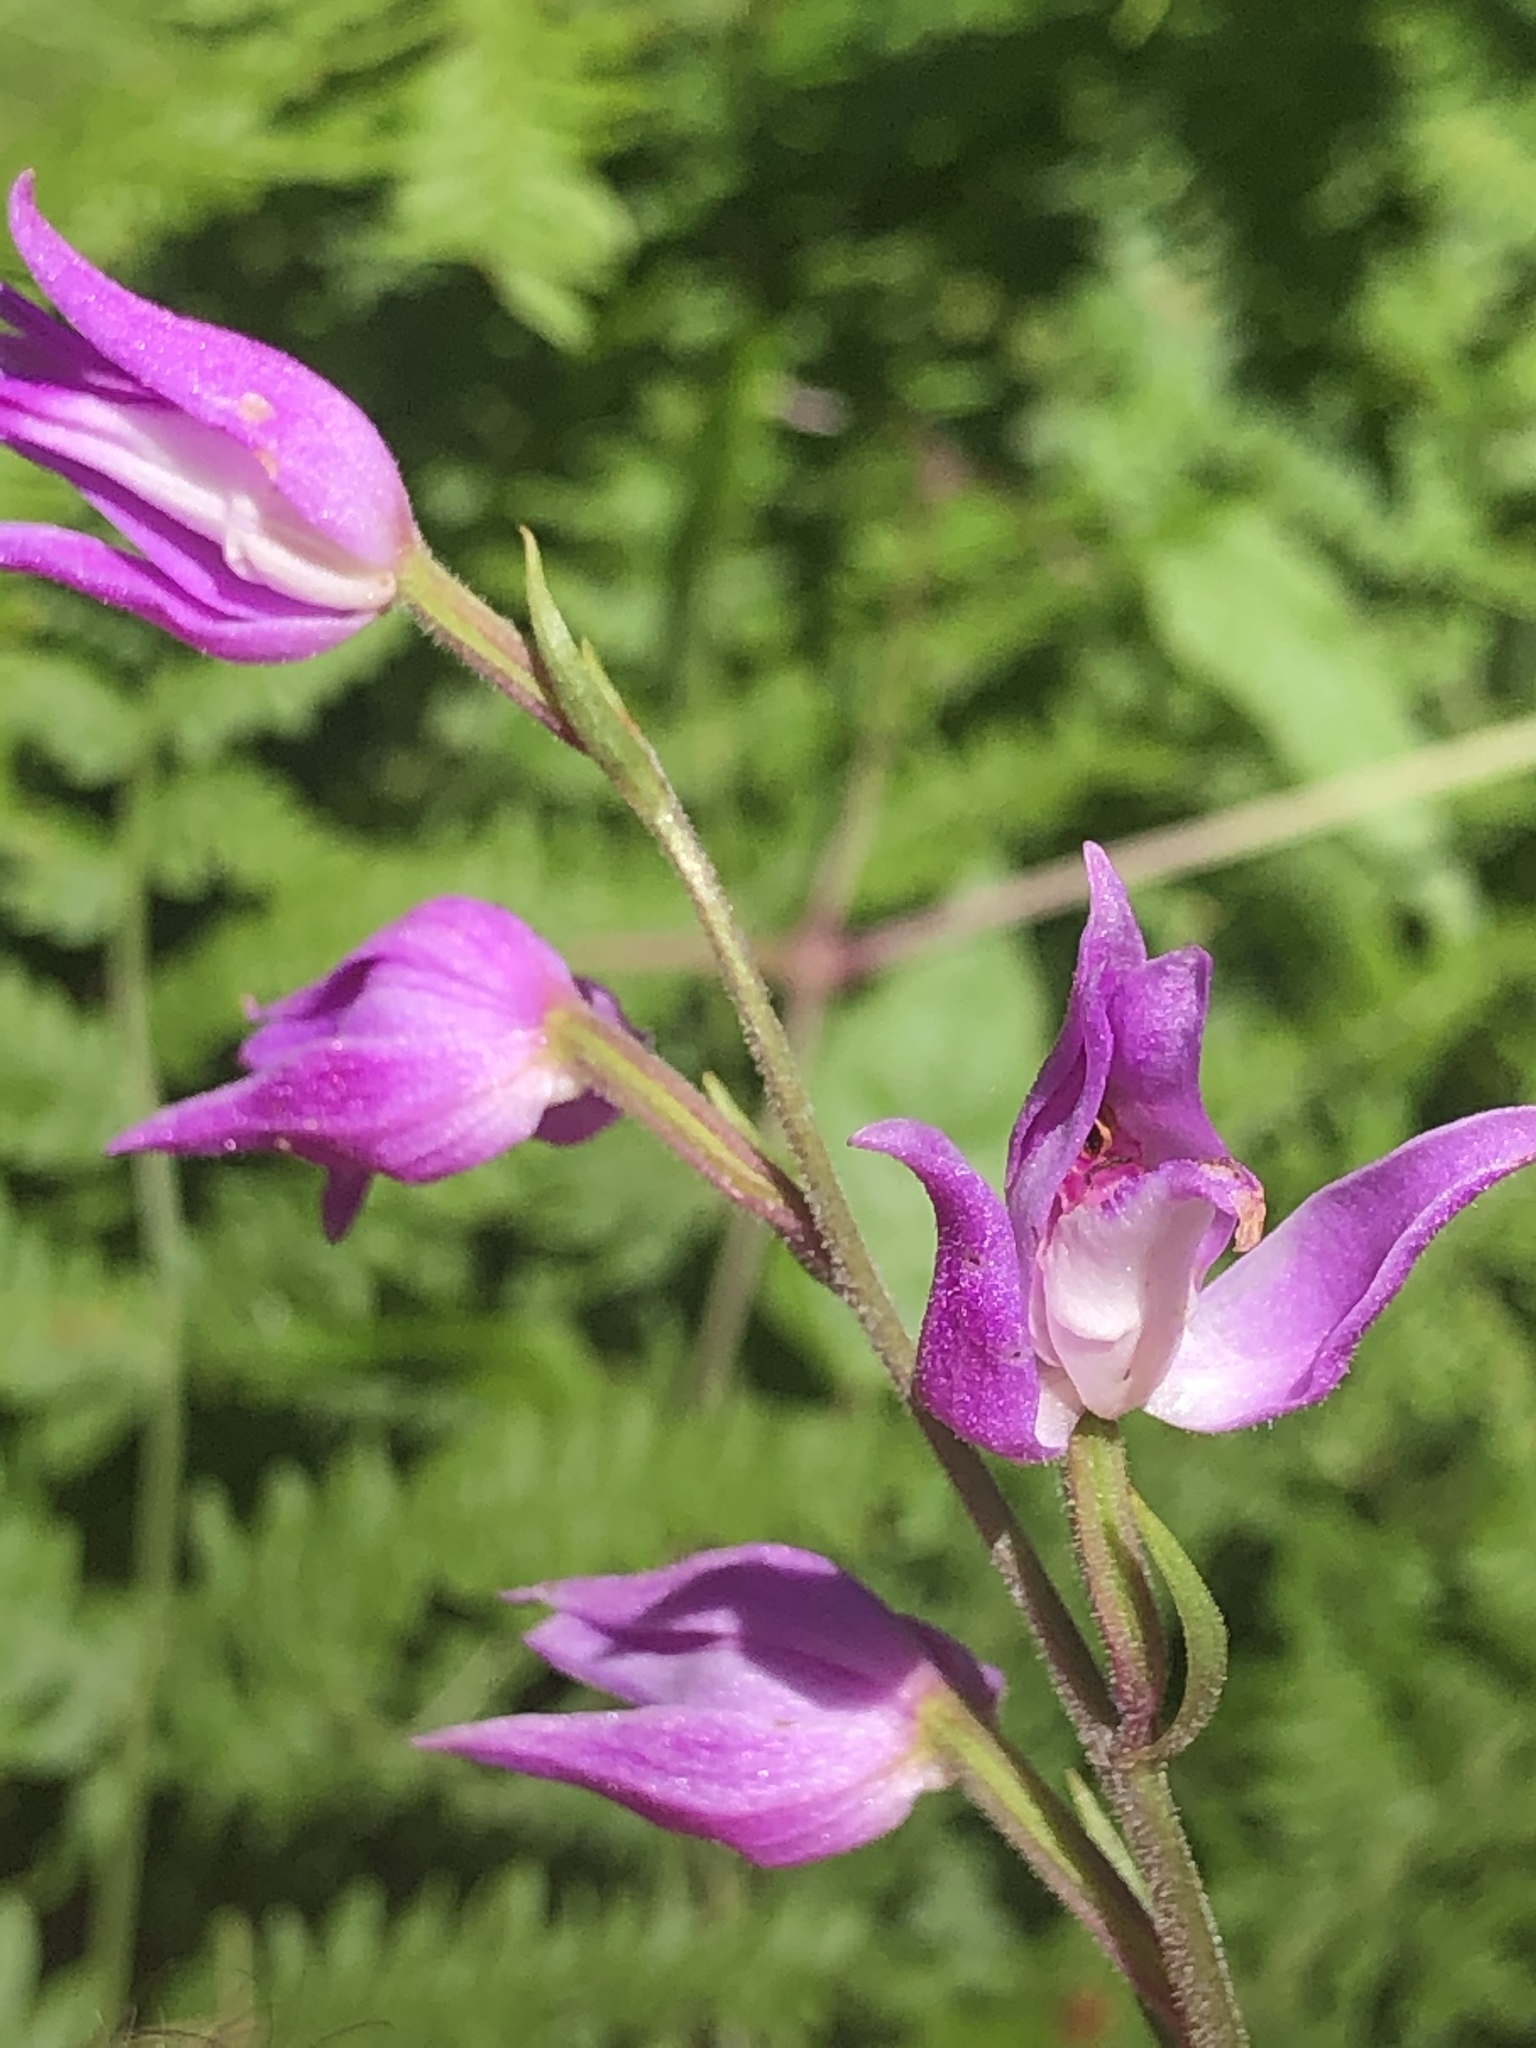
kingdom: Plantae
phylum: Tracheophyta
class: Liliopsida
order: Asparagales
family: Orchidaceae
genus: Cephalanthera
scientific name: Cephalanthera rubra
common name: Red helleborine
